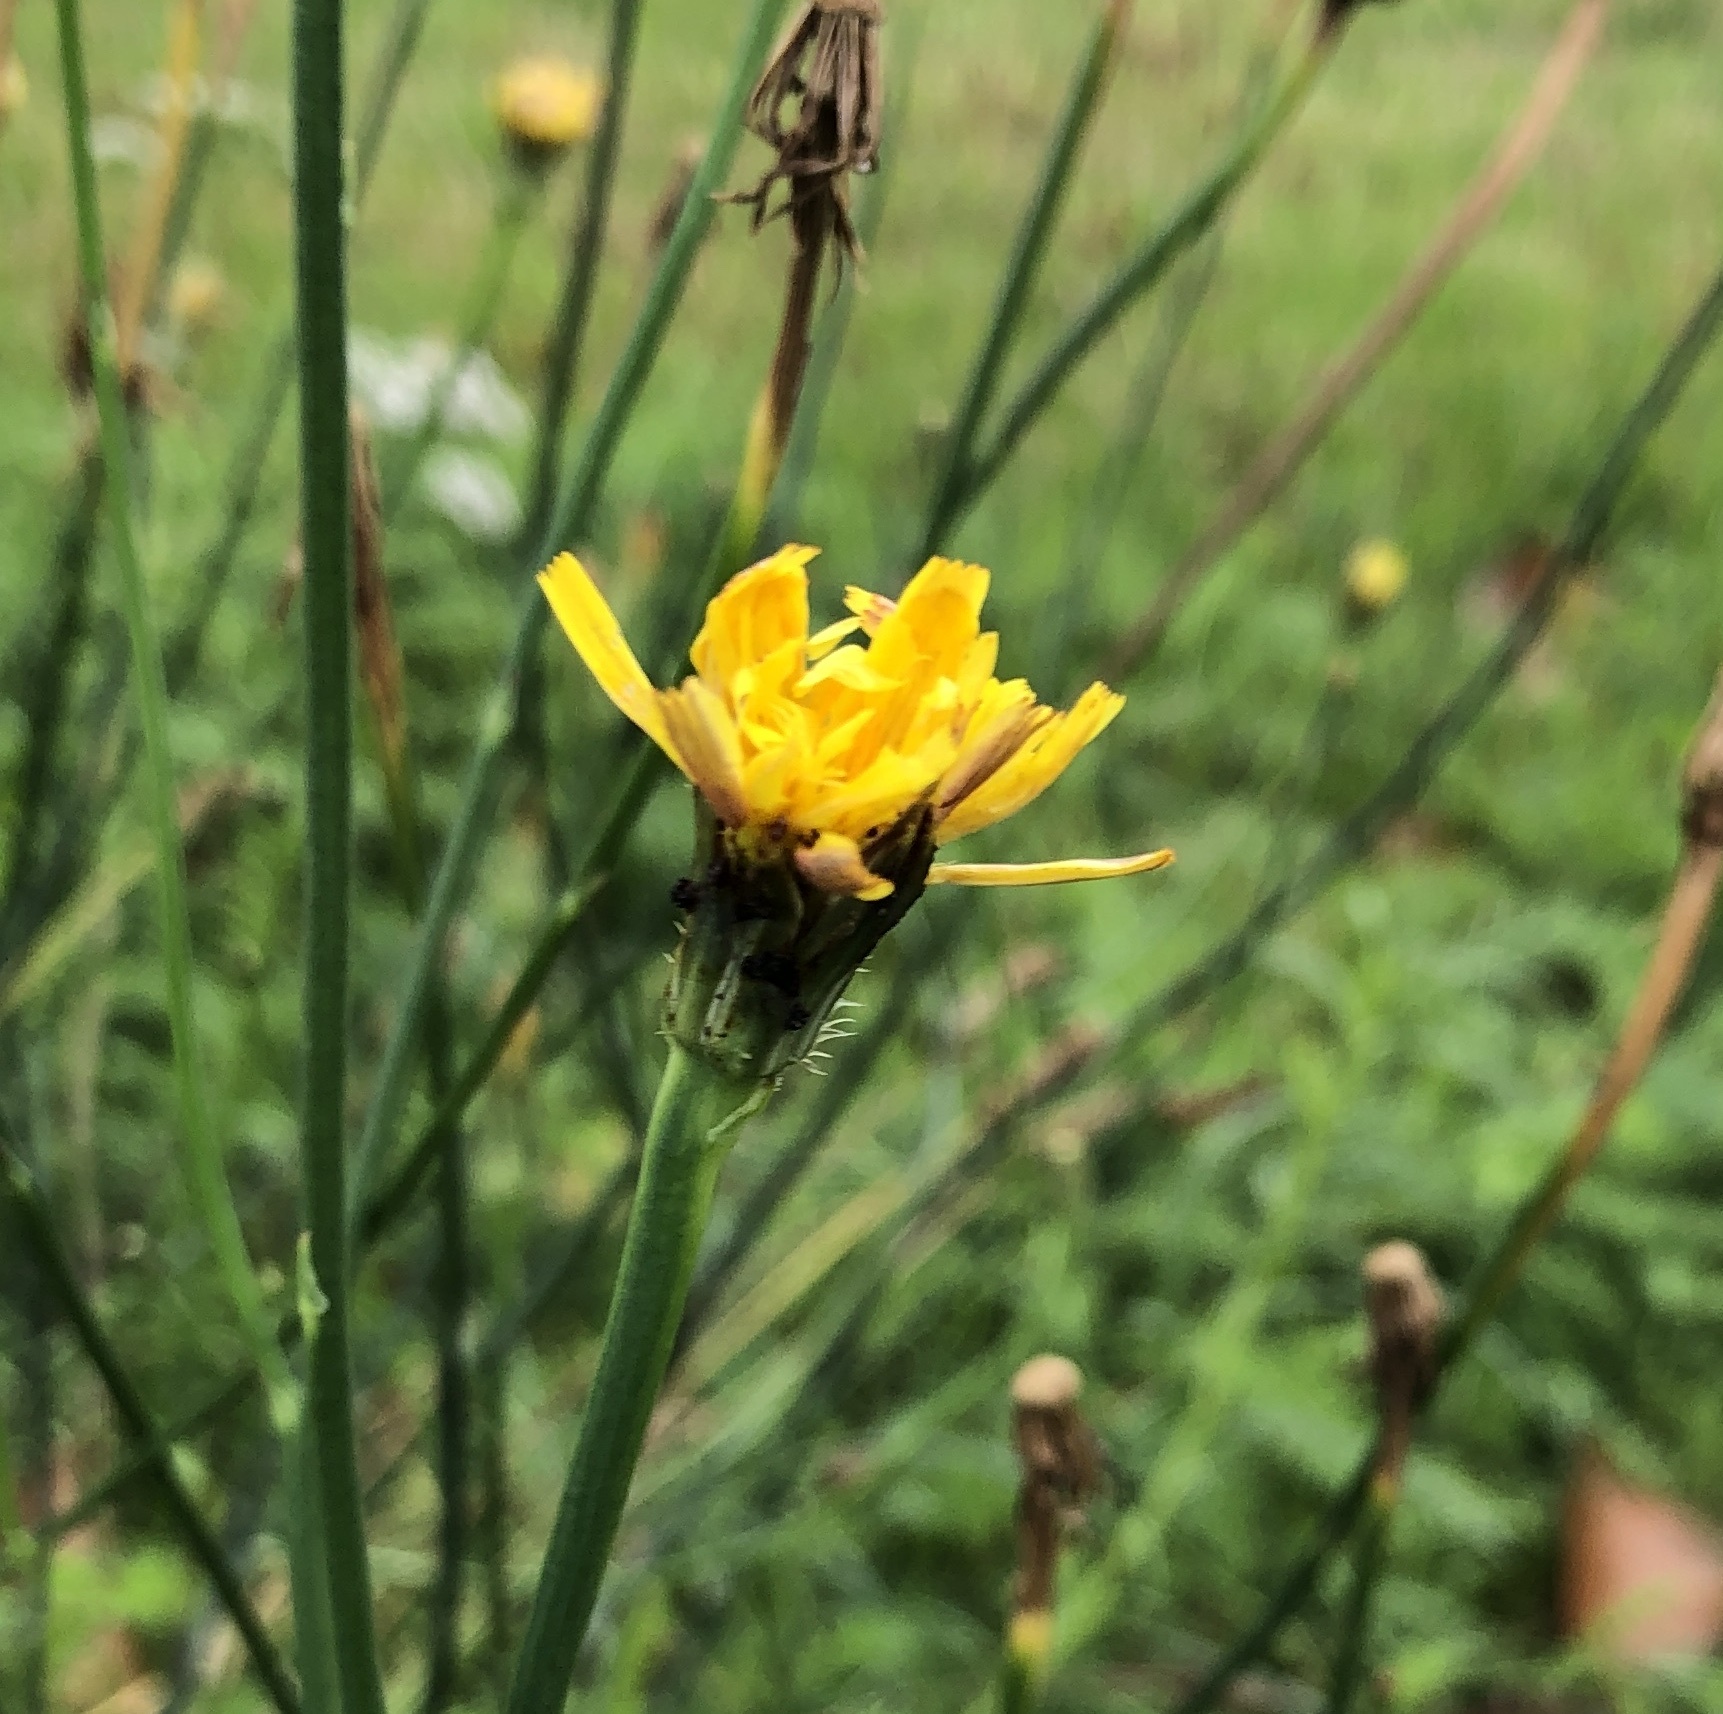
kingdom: Plantae
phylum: Tracheophyta
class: Magnoliopsida
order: Asterales
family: Asteraceae
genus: Hypochaeris
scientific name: Hypochaeris radicata
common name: Flatweed
